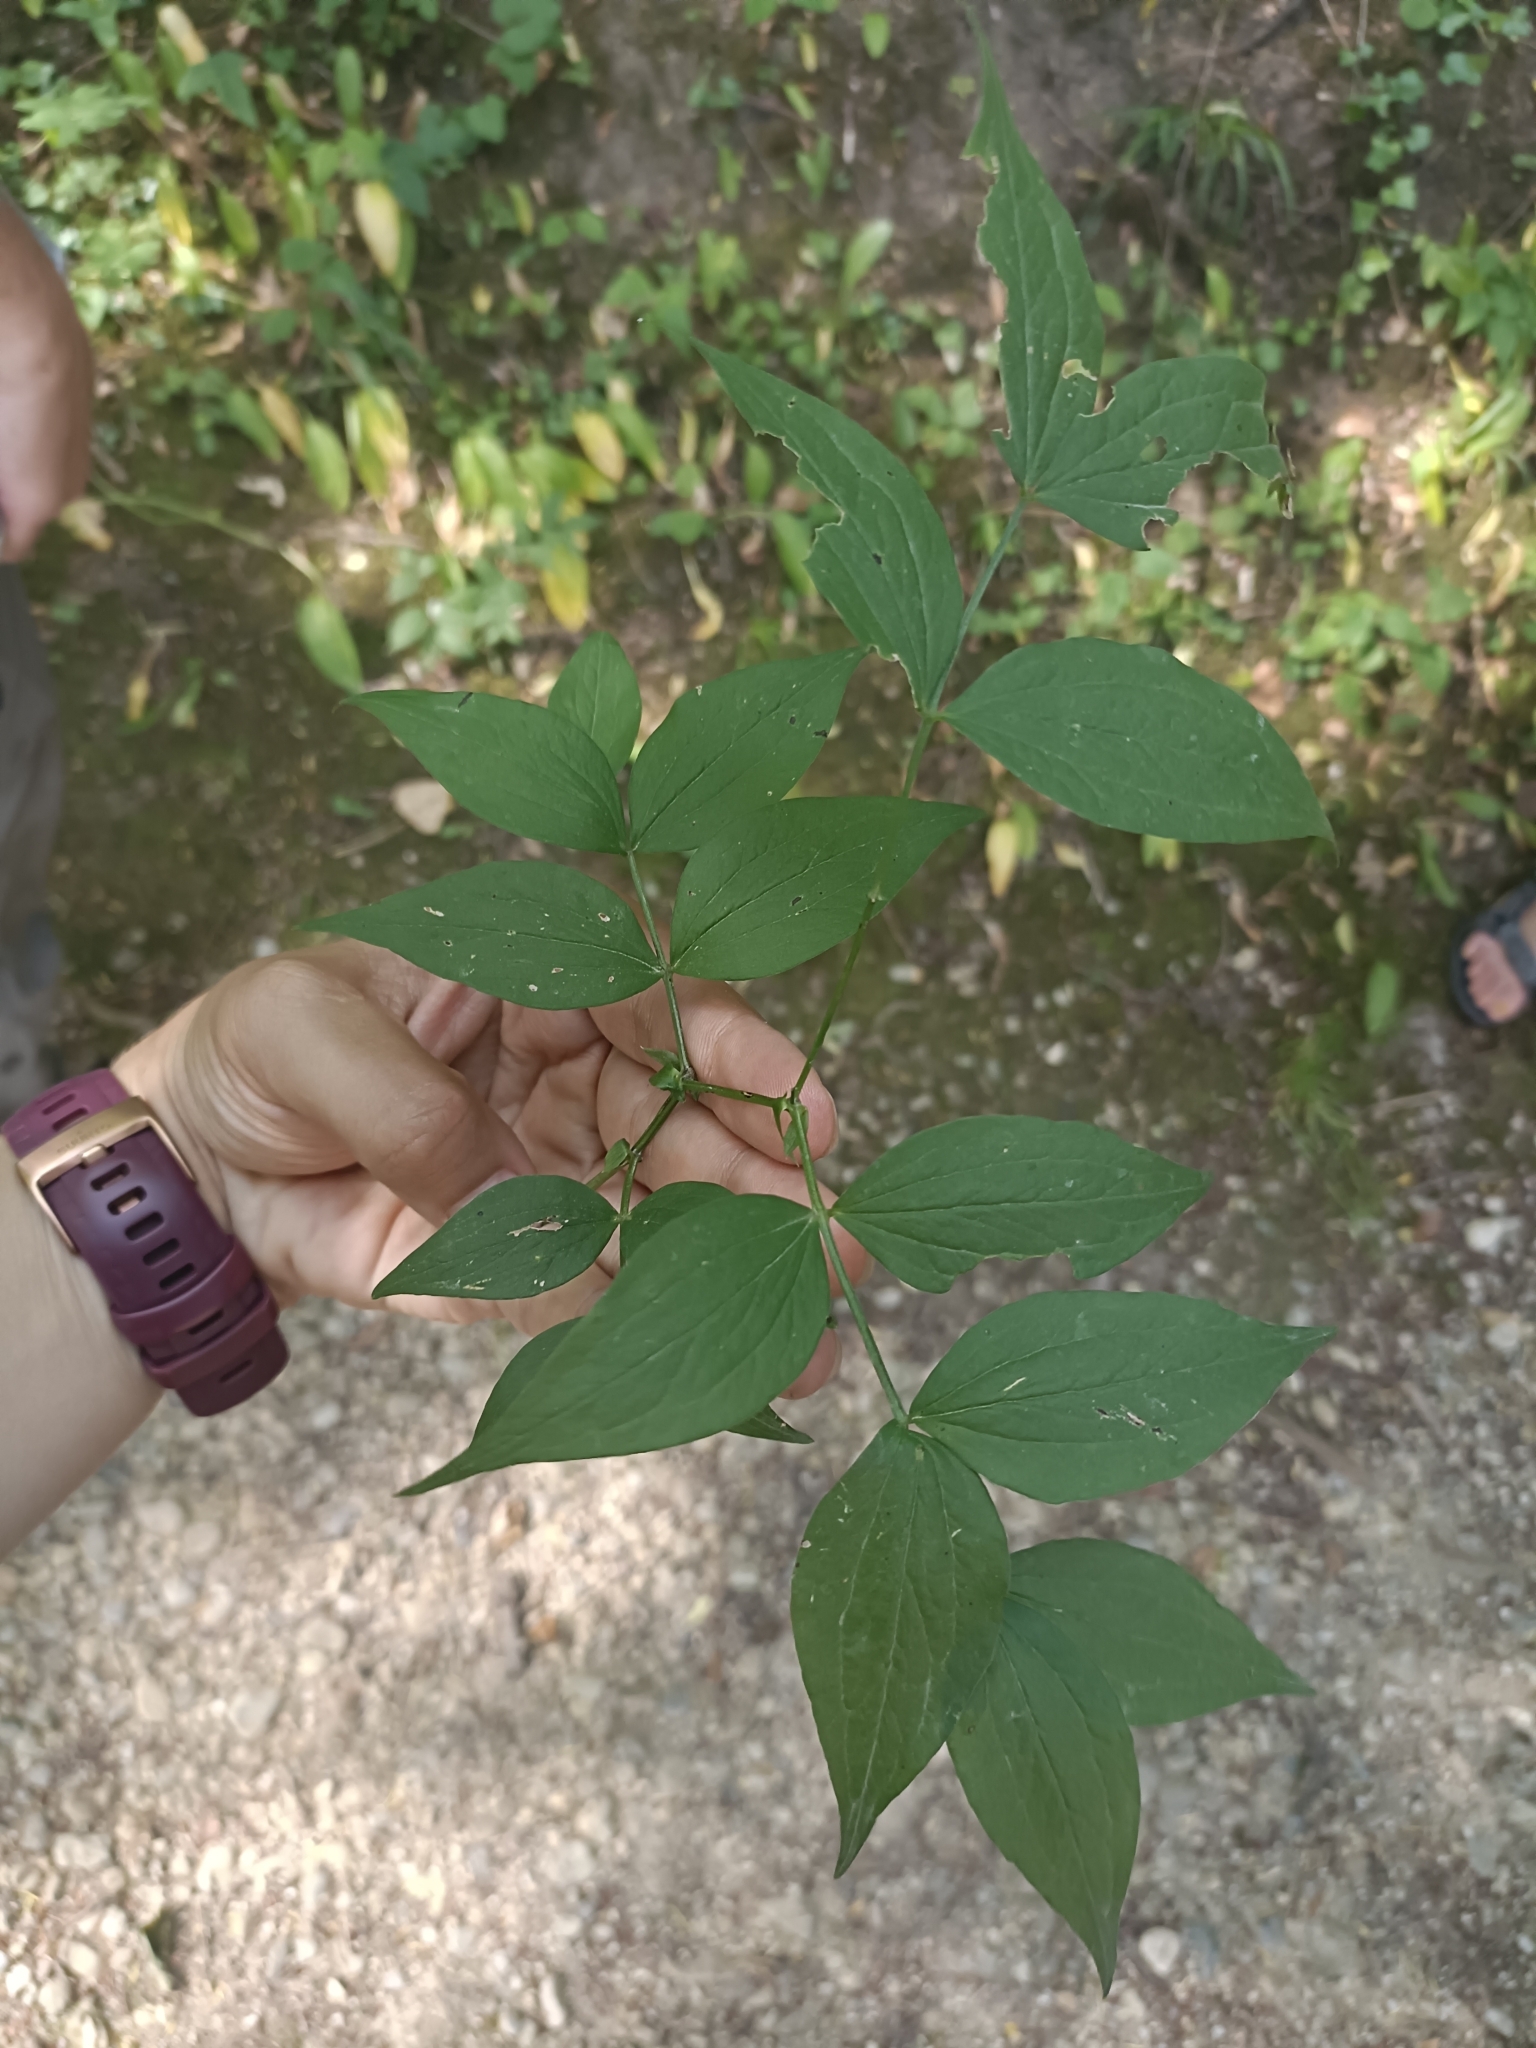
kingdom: Plantae
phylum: Tracheophyta
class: Magnoliopsida
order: Fabales
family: Fabaceae
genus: Lathyrus
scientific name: Lathyrus vernus
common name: Spring pea
